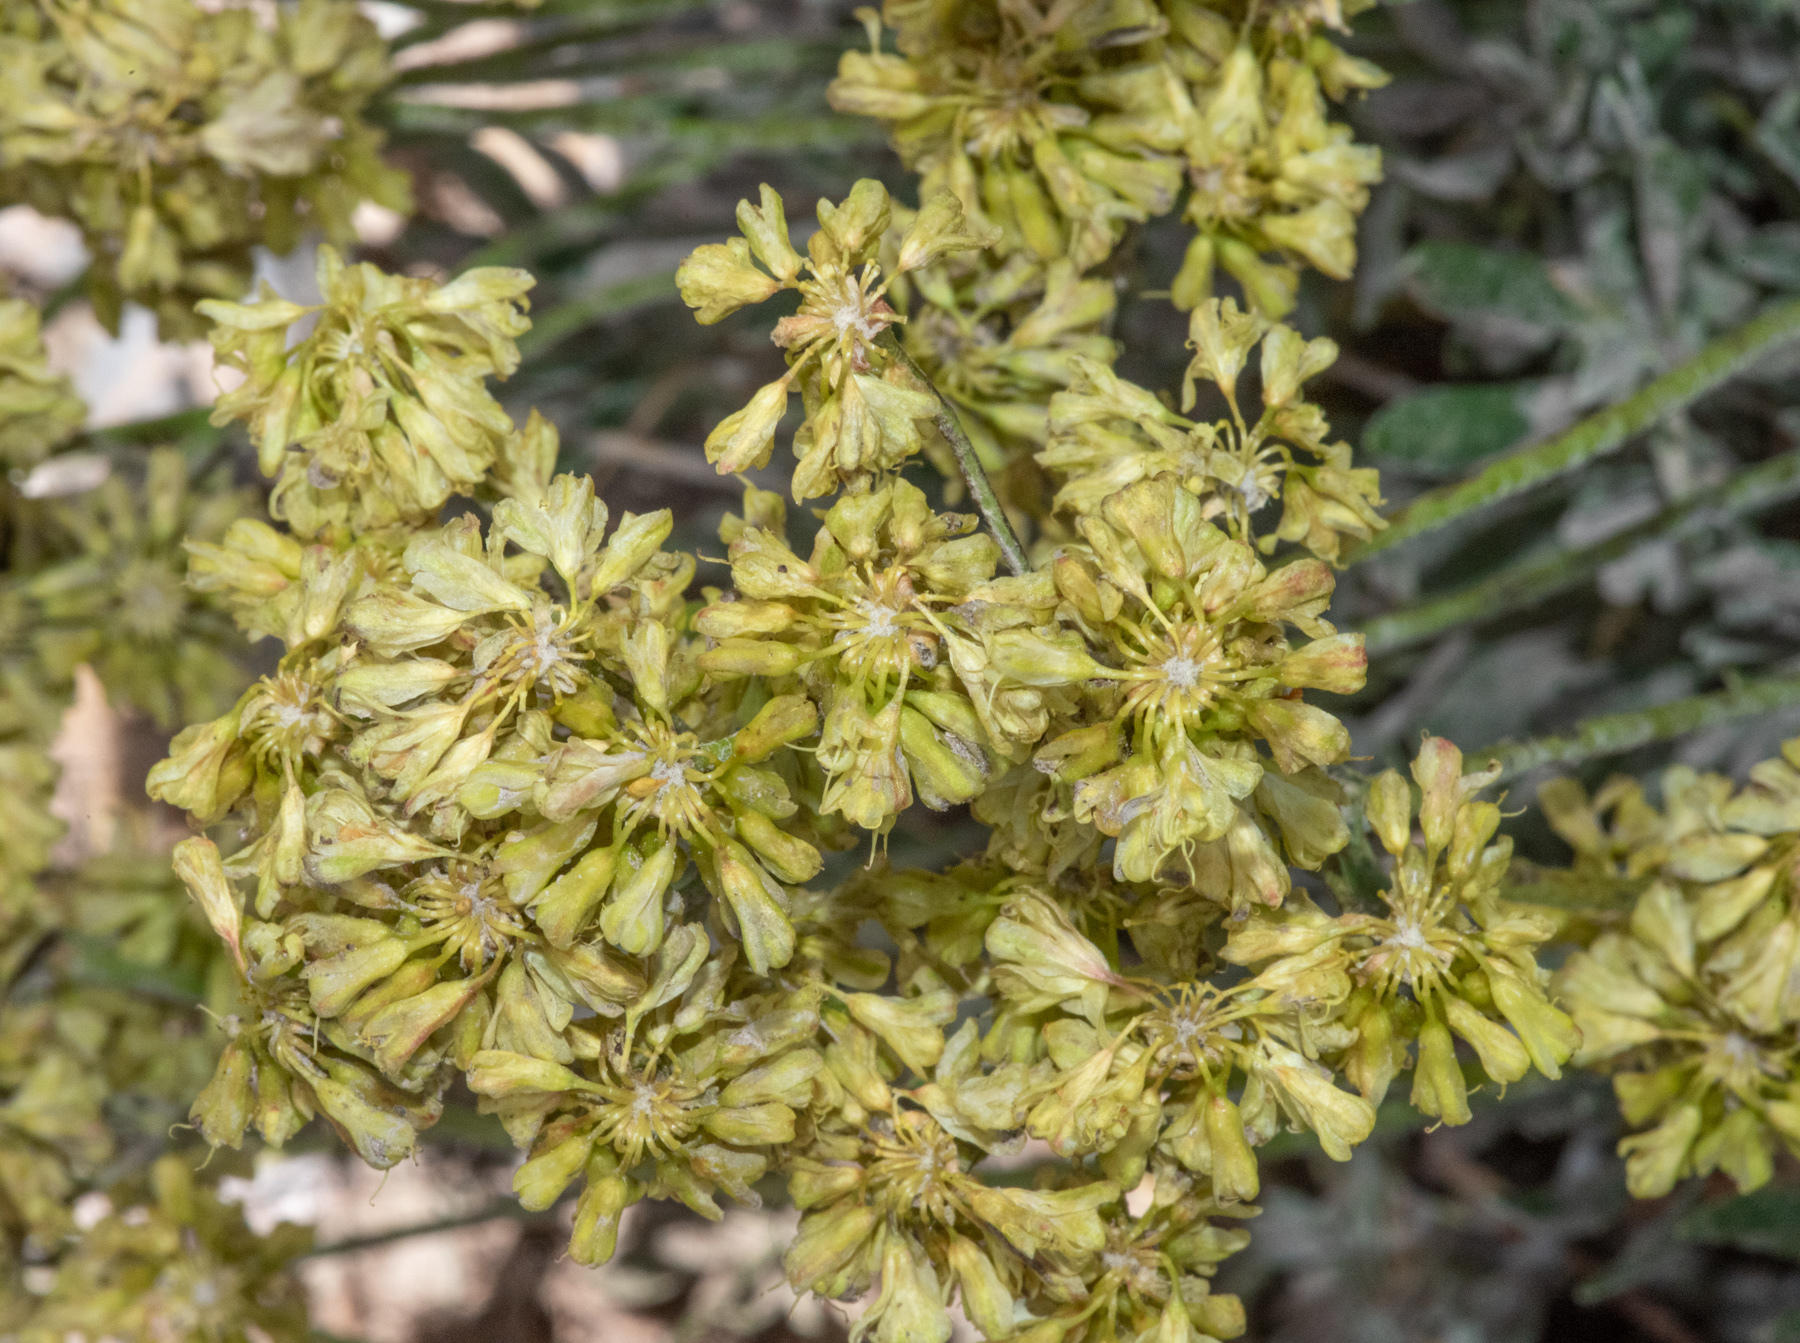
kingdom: Plantae
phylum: Tracheophyta
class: Magnoliopsida
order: Caryophyllales
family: Polygonaceae
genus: Eriogonum
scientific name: Eriogonum umbellatum
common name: Sulfur-buckwheat
